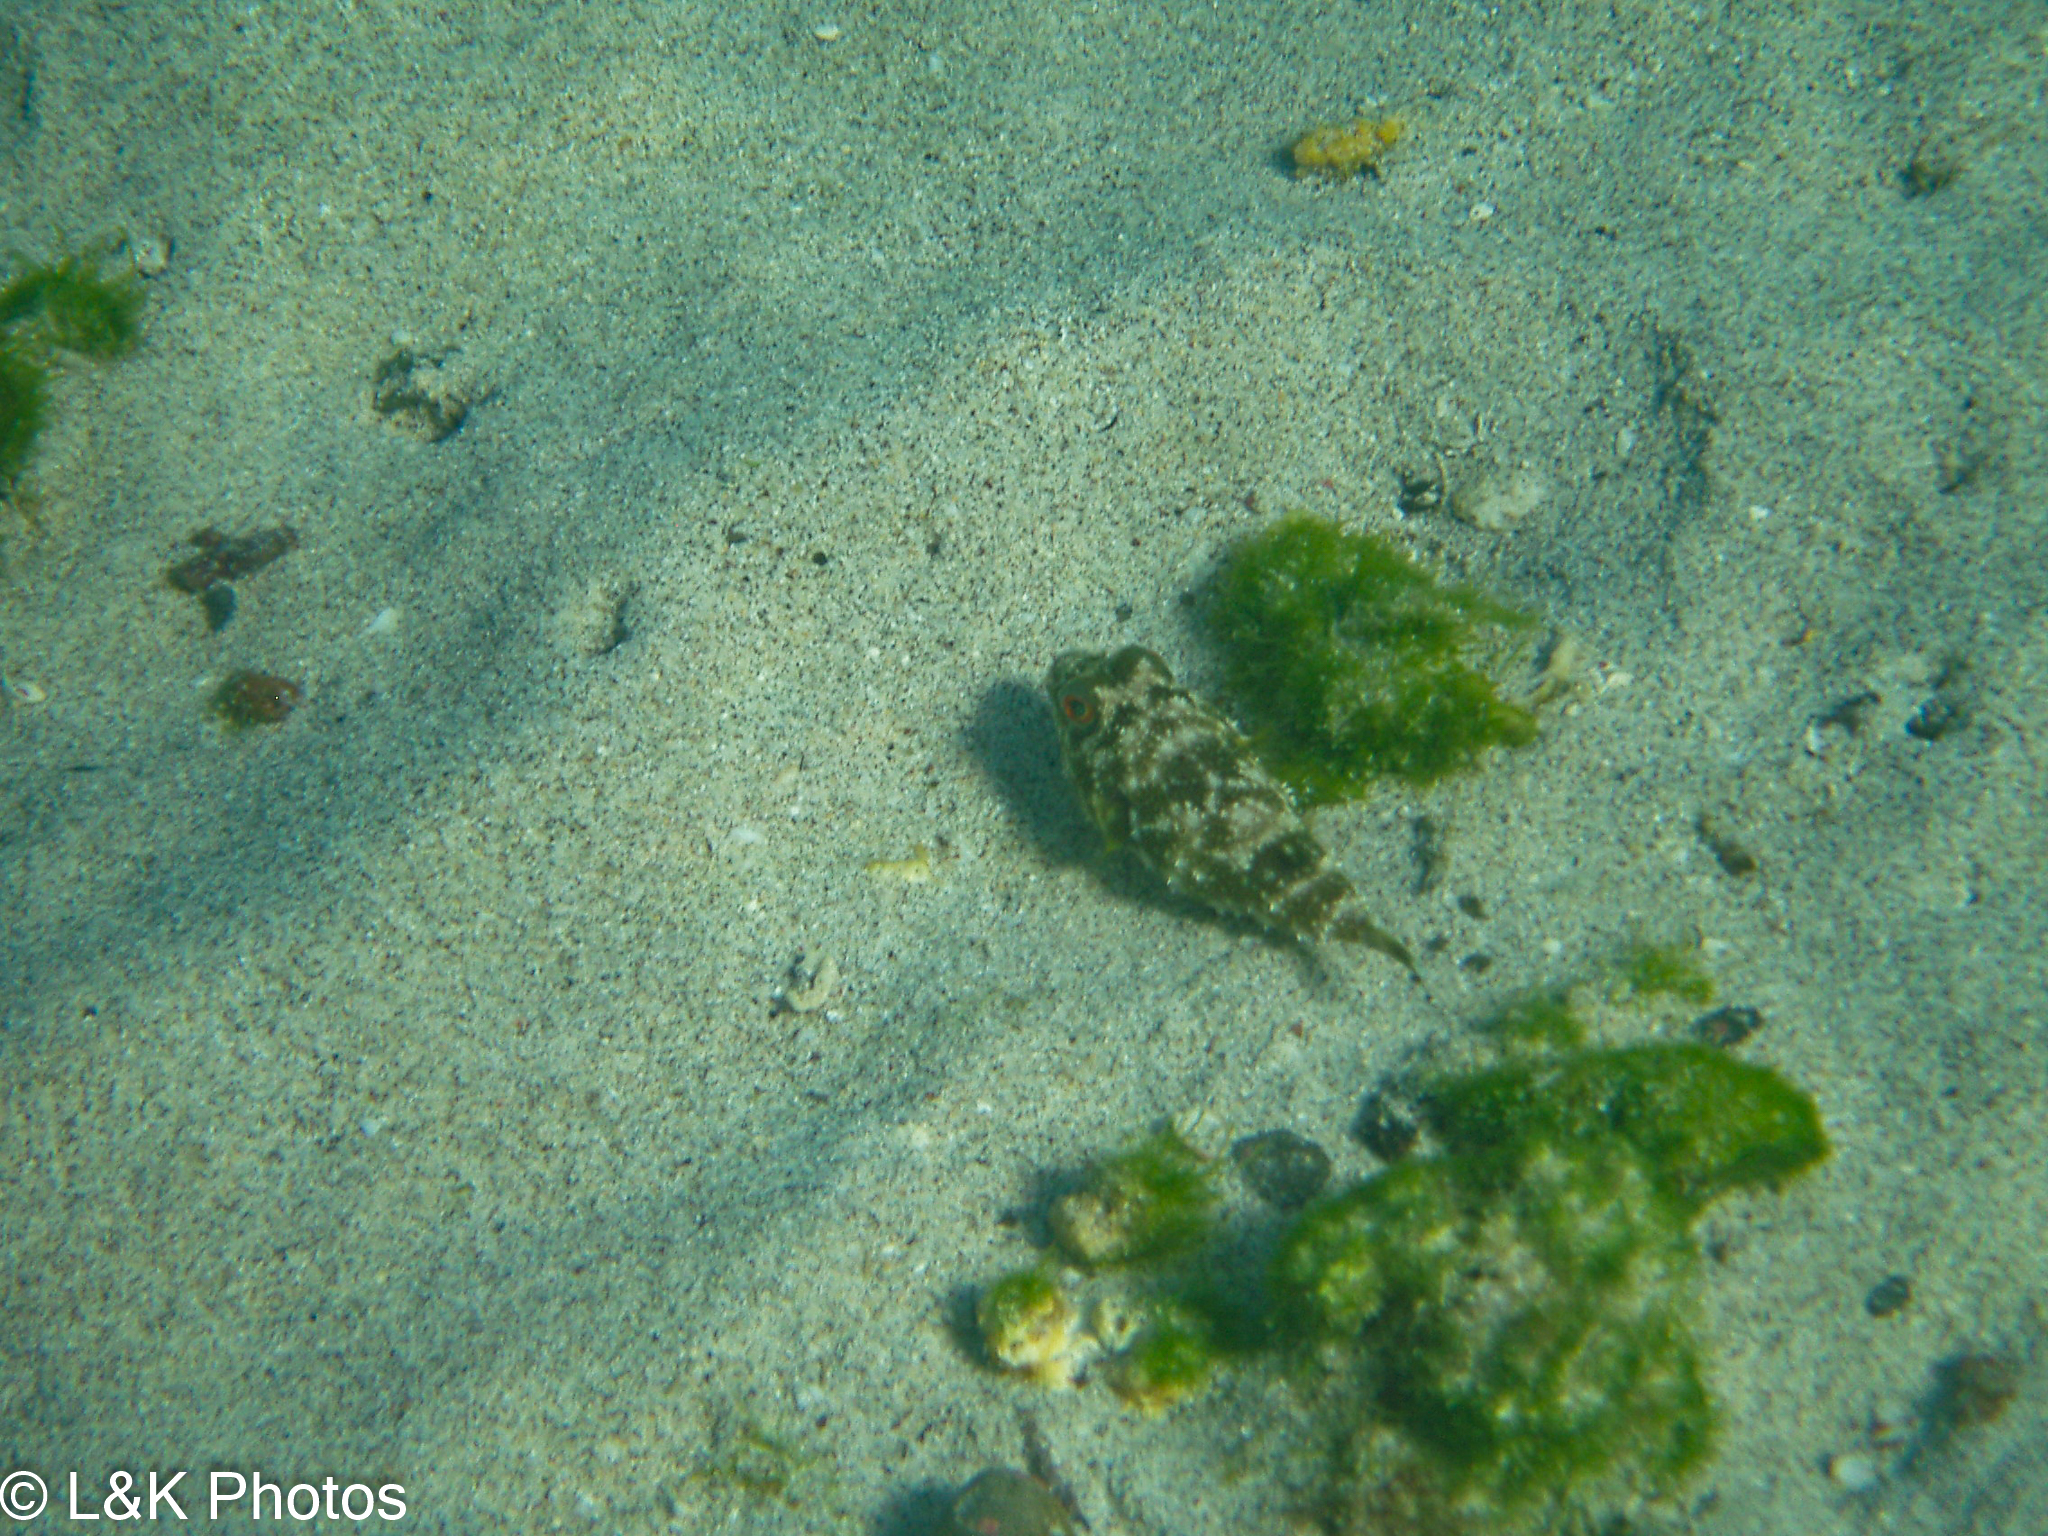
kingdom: Animalia
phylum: Chordata
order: Tetraodontiformes
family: Tetraodontidae
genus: Sphoeroides
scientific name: Sphoeroides annulatus
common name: Bullseye puffer
